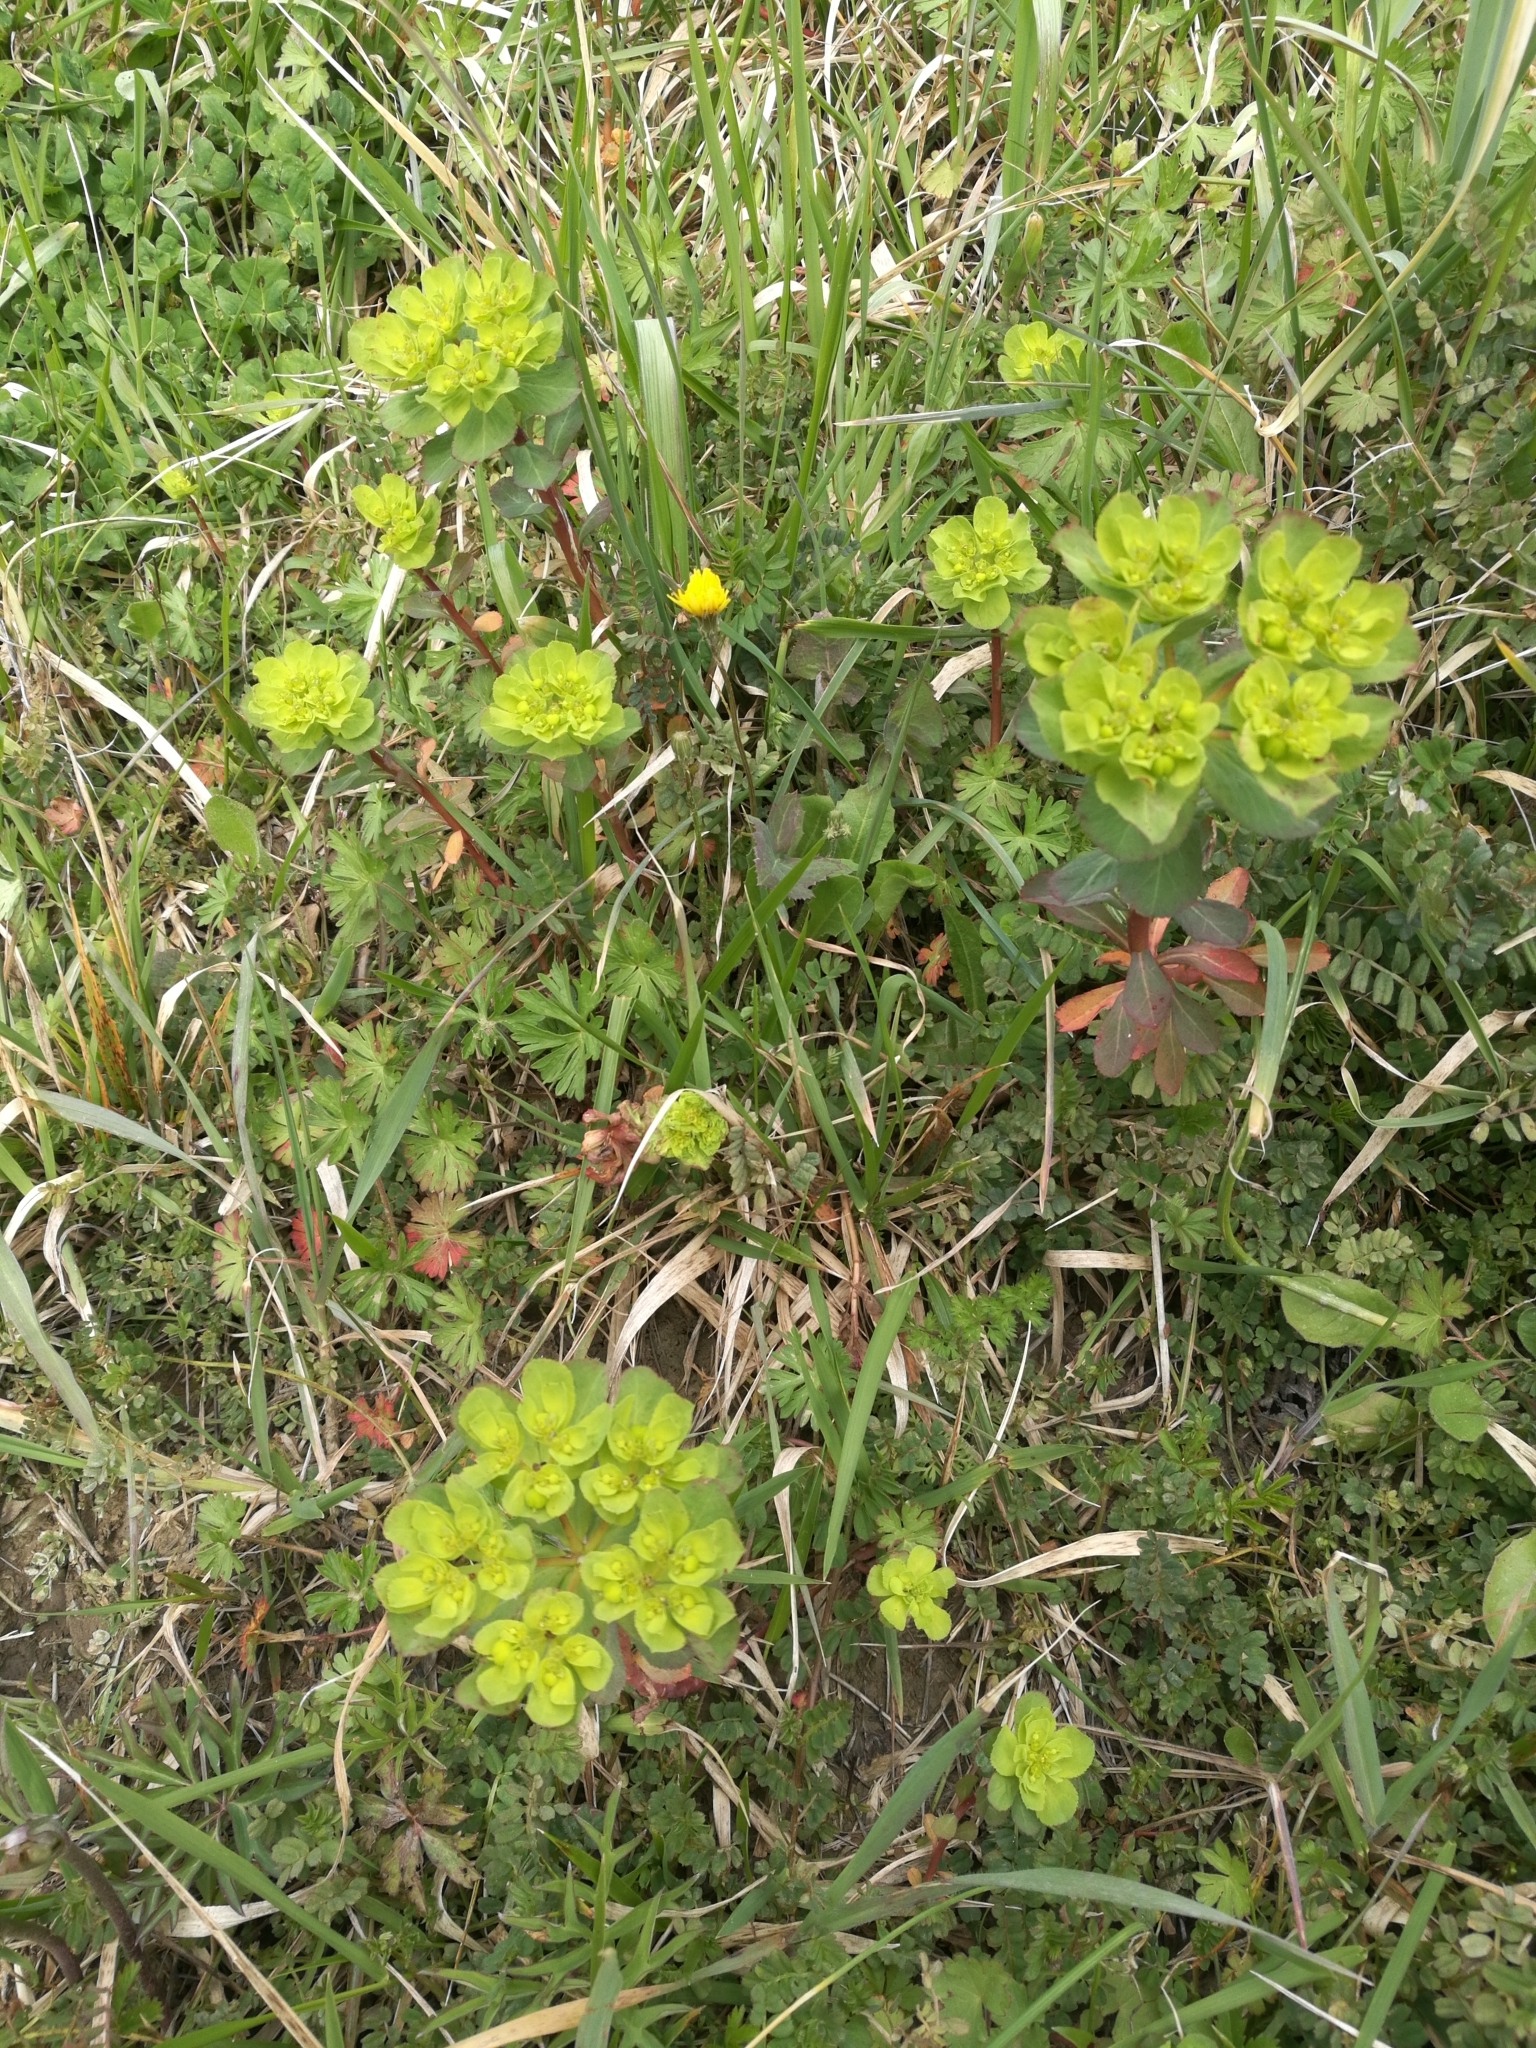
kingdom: Plantae
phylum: Tracheophyta
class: Magnoliopsida
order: Malpighiales
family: Euphorbiaceae
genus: Euphorbia
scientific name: Euphorbia helioscopia
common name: Sun spurge
